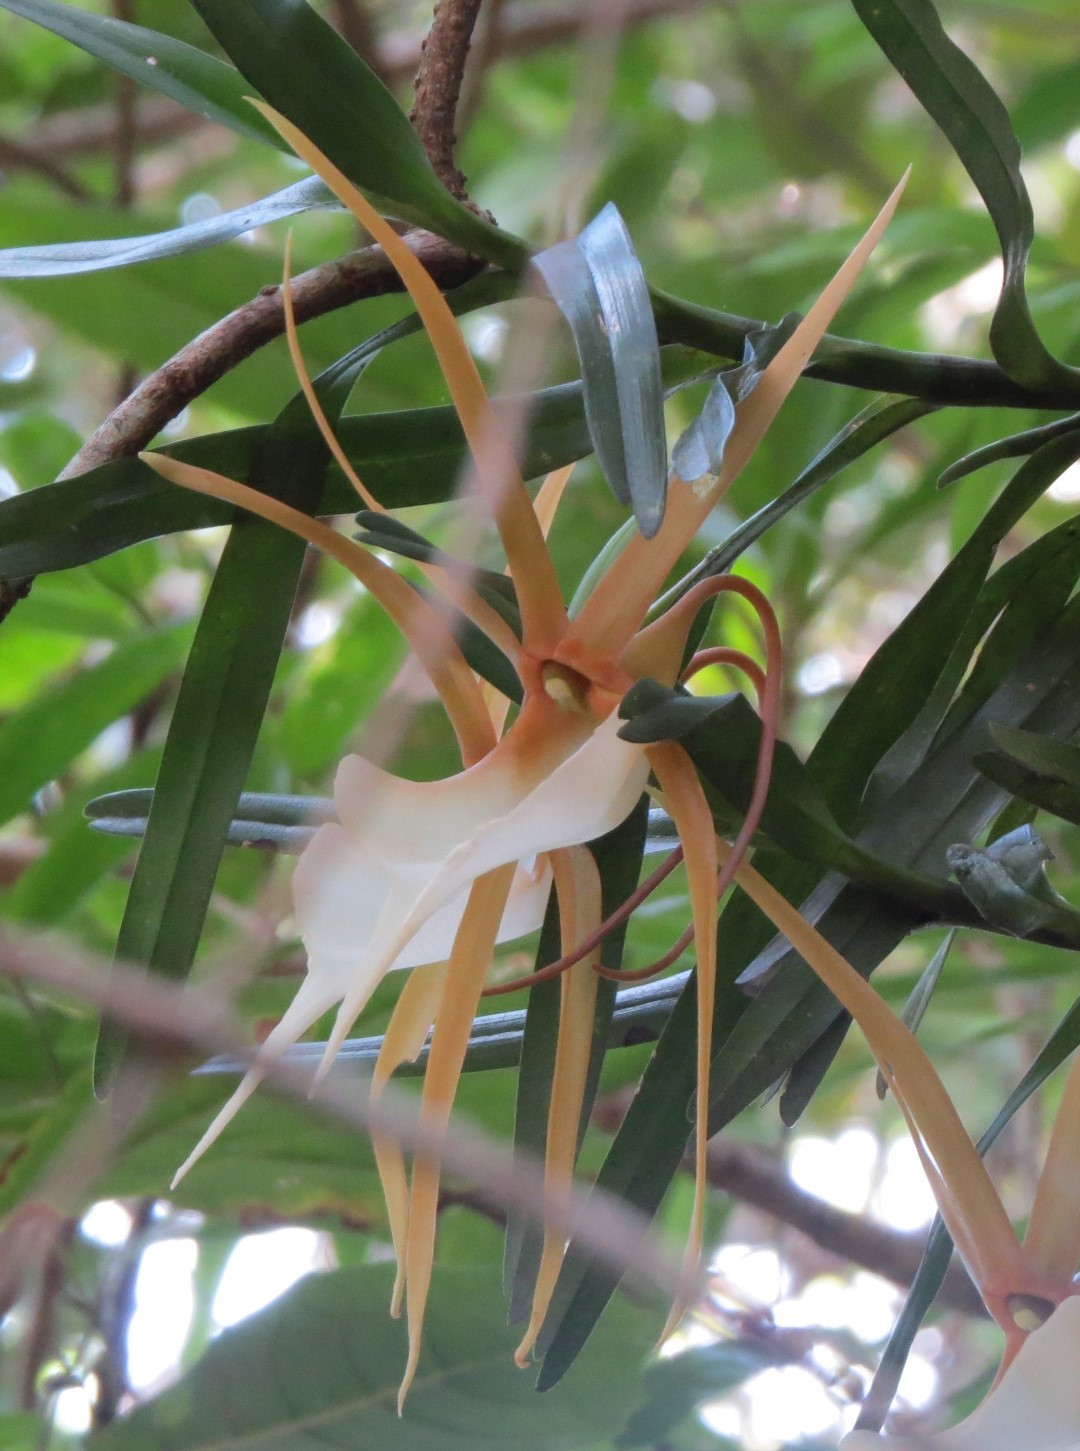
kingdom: Plantae
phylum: Tracheophyta
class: Liliopsida
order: Asparagales
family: Orchidaceae
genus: Angraecum
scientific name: Angraecum viguieri
